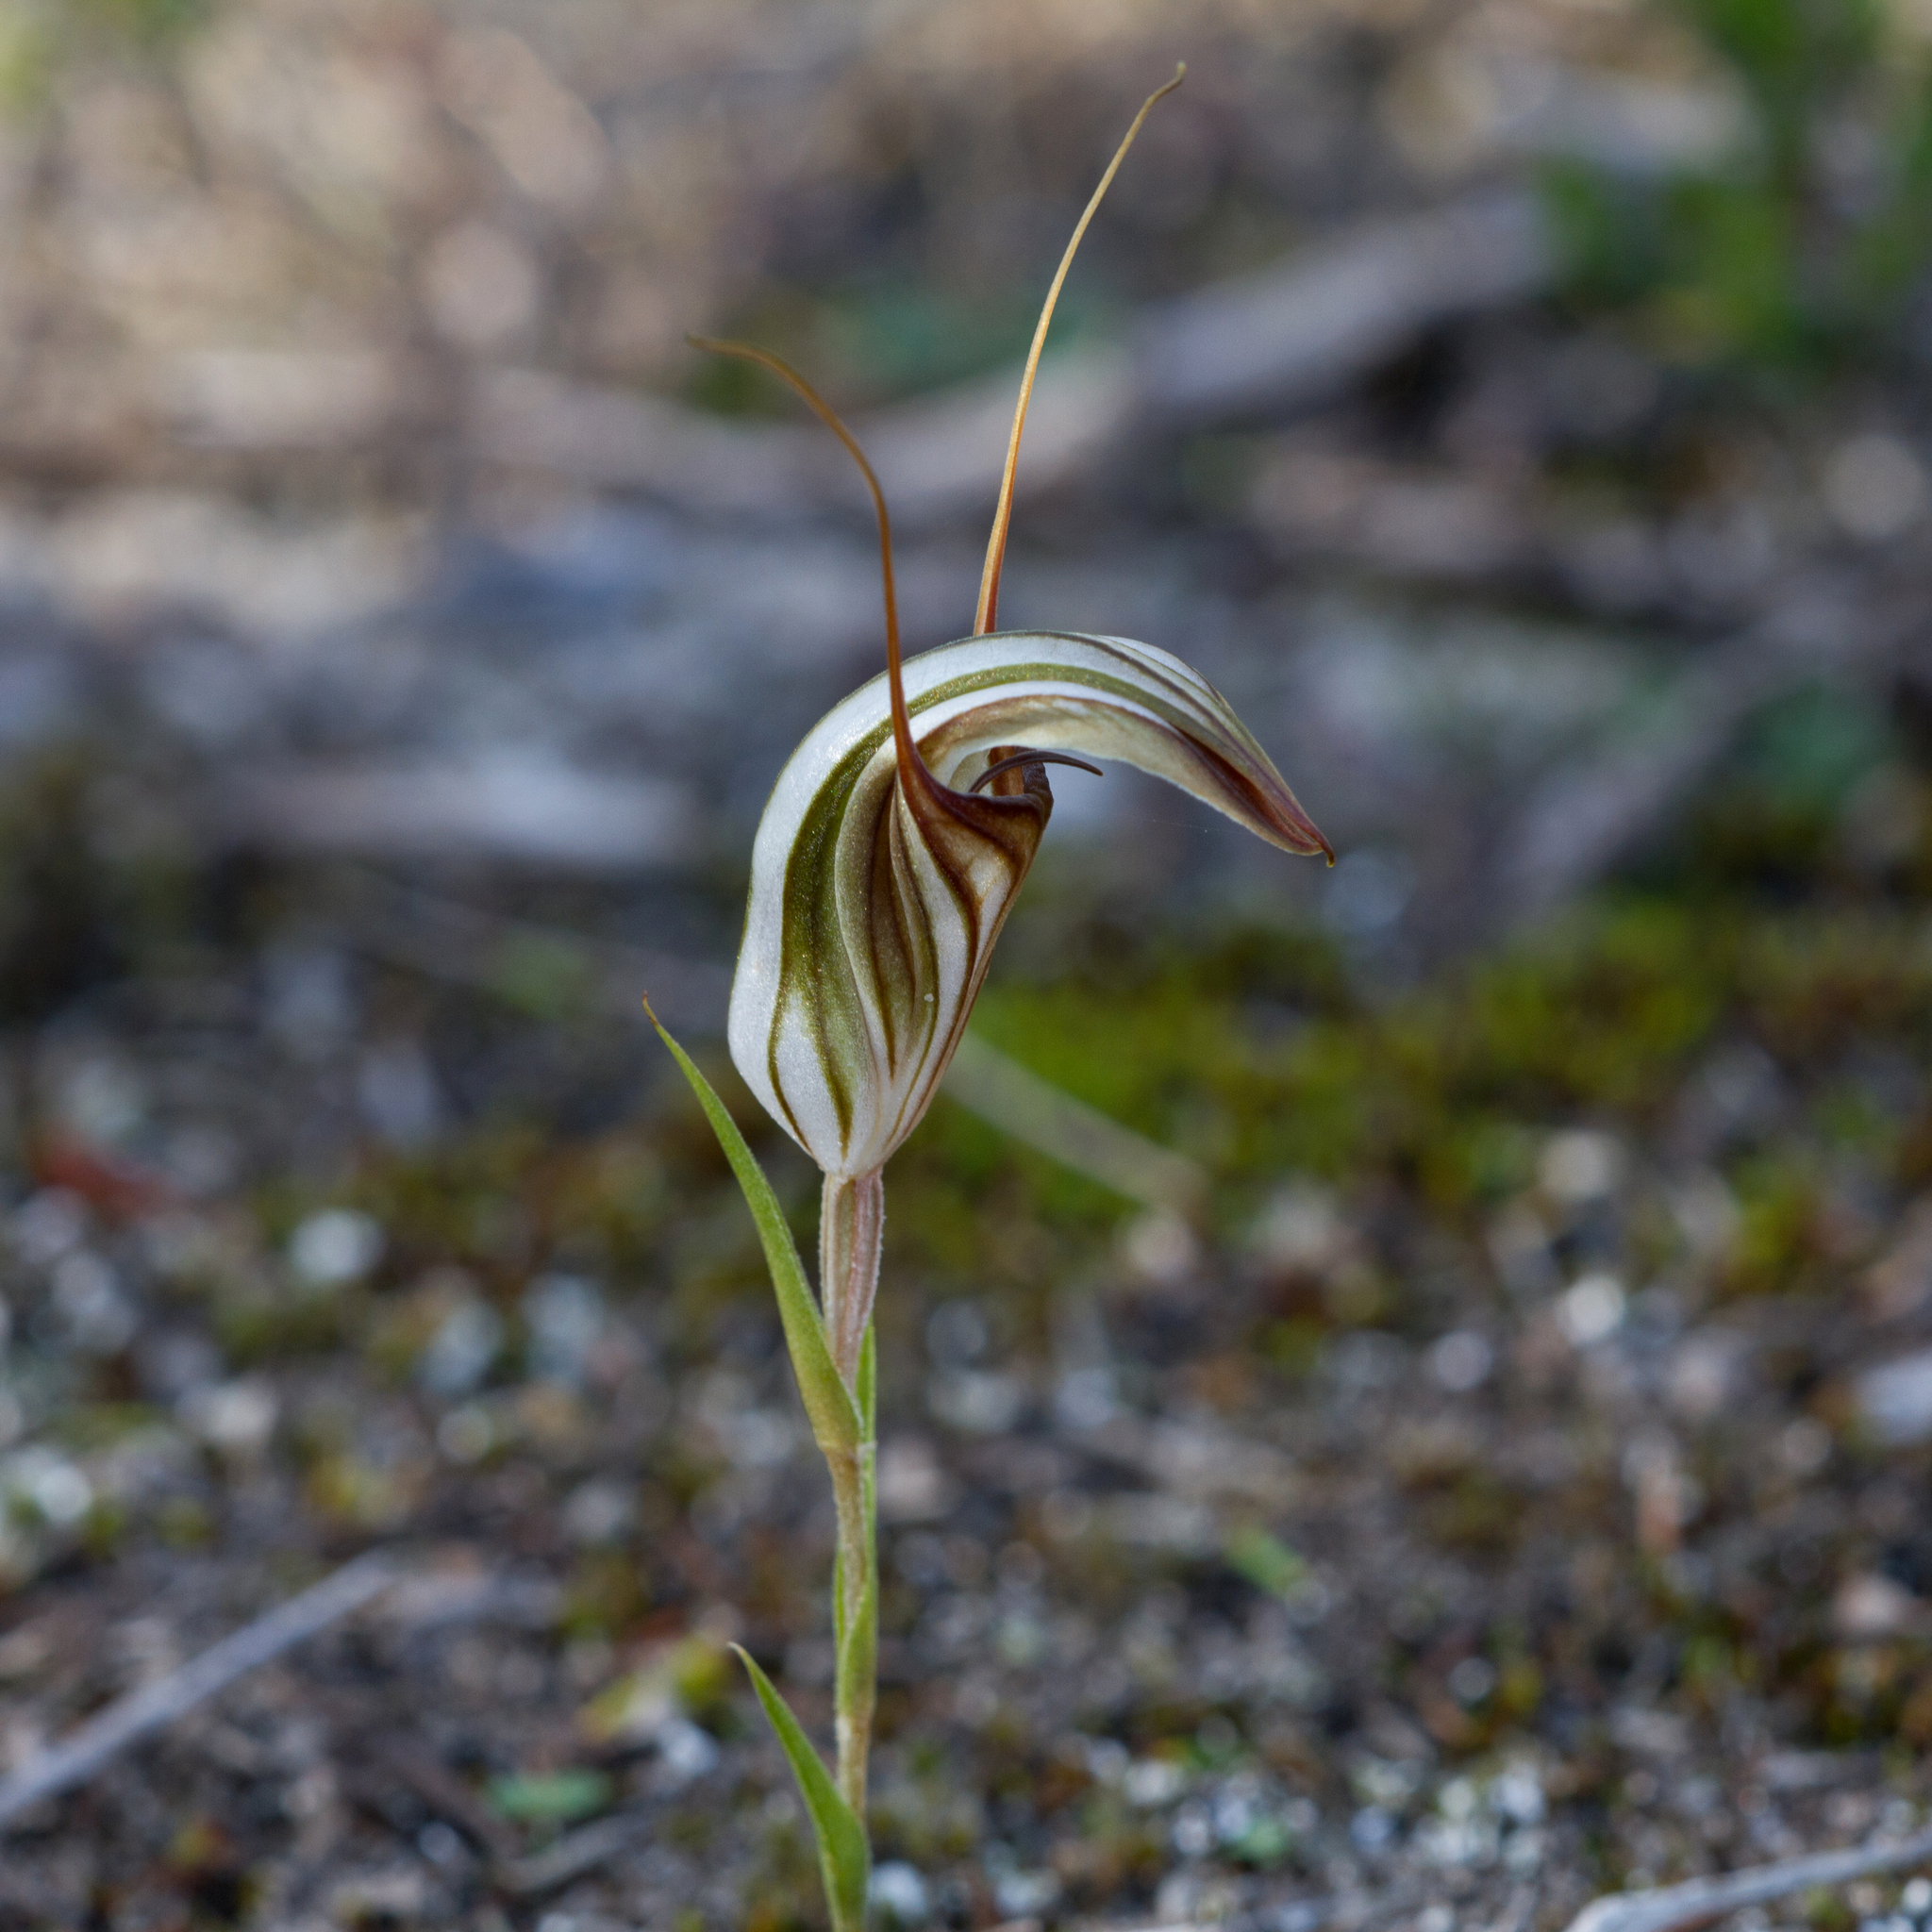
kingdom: Plantae
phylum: Tracheophyta
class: Liliopsida
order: Asparagales
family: Orchidaceae
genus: Pterostylis
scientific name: Pterostylis dolichochila
